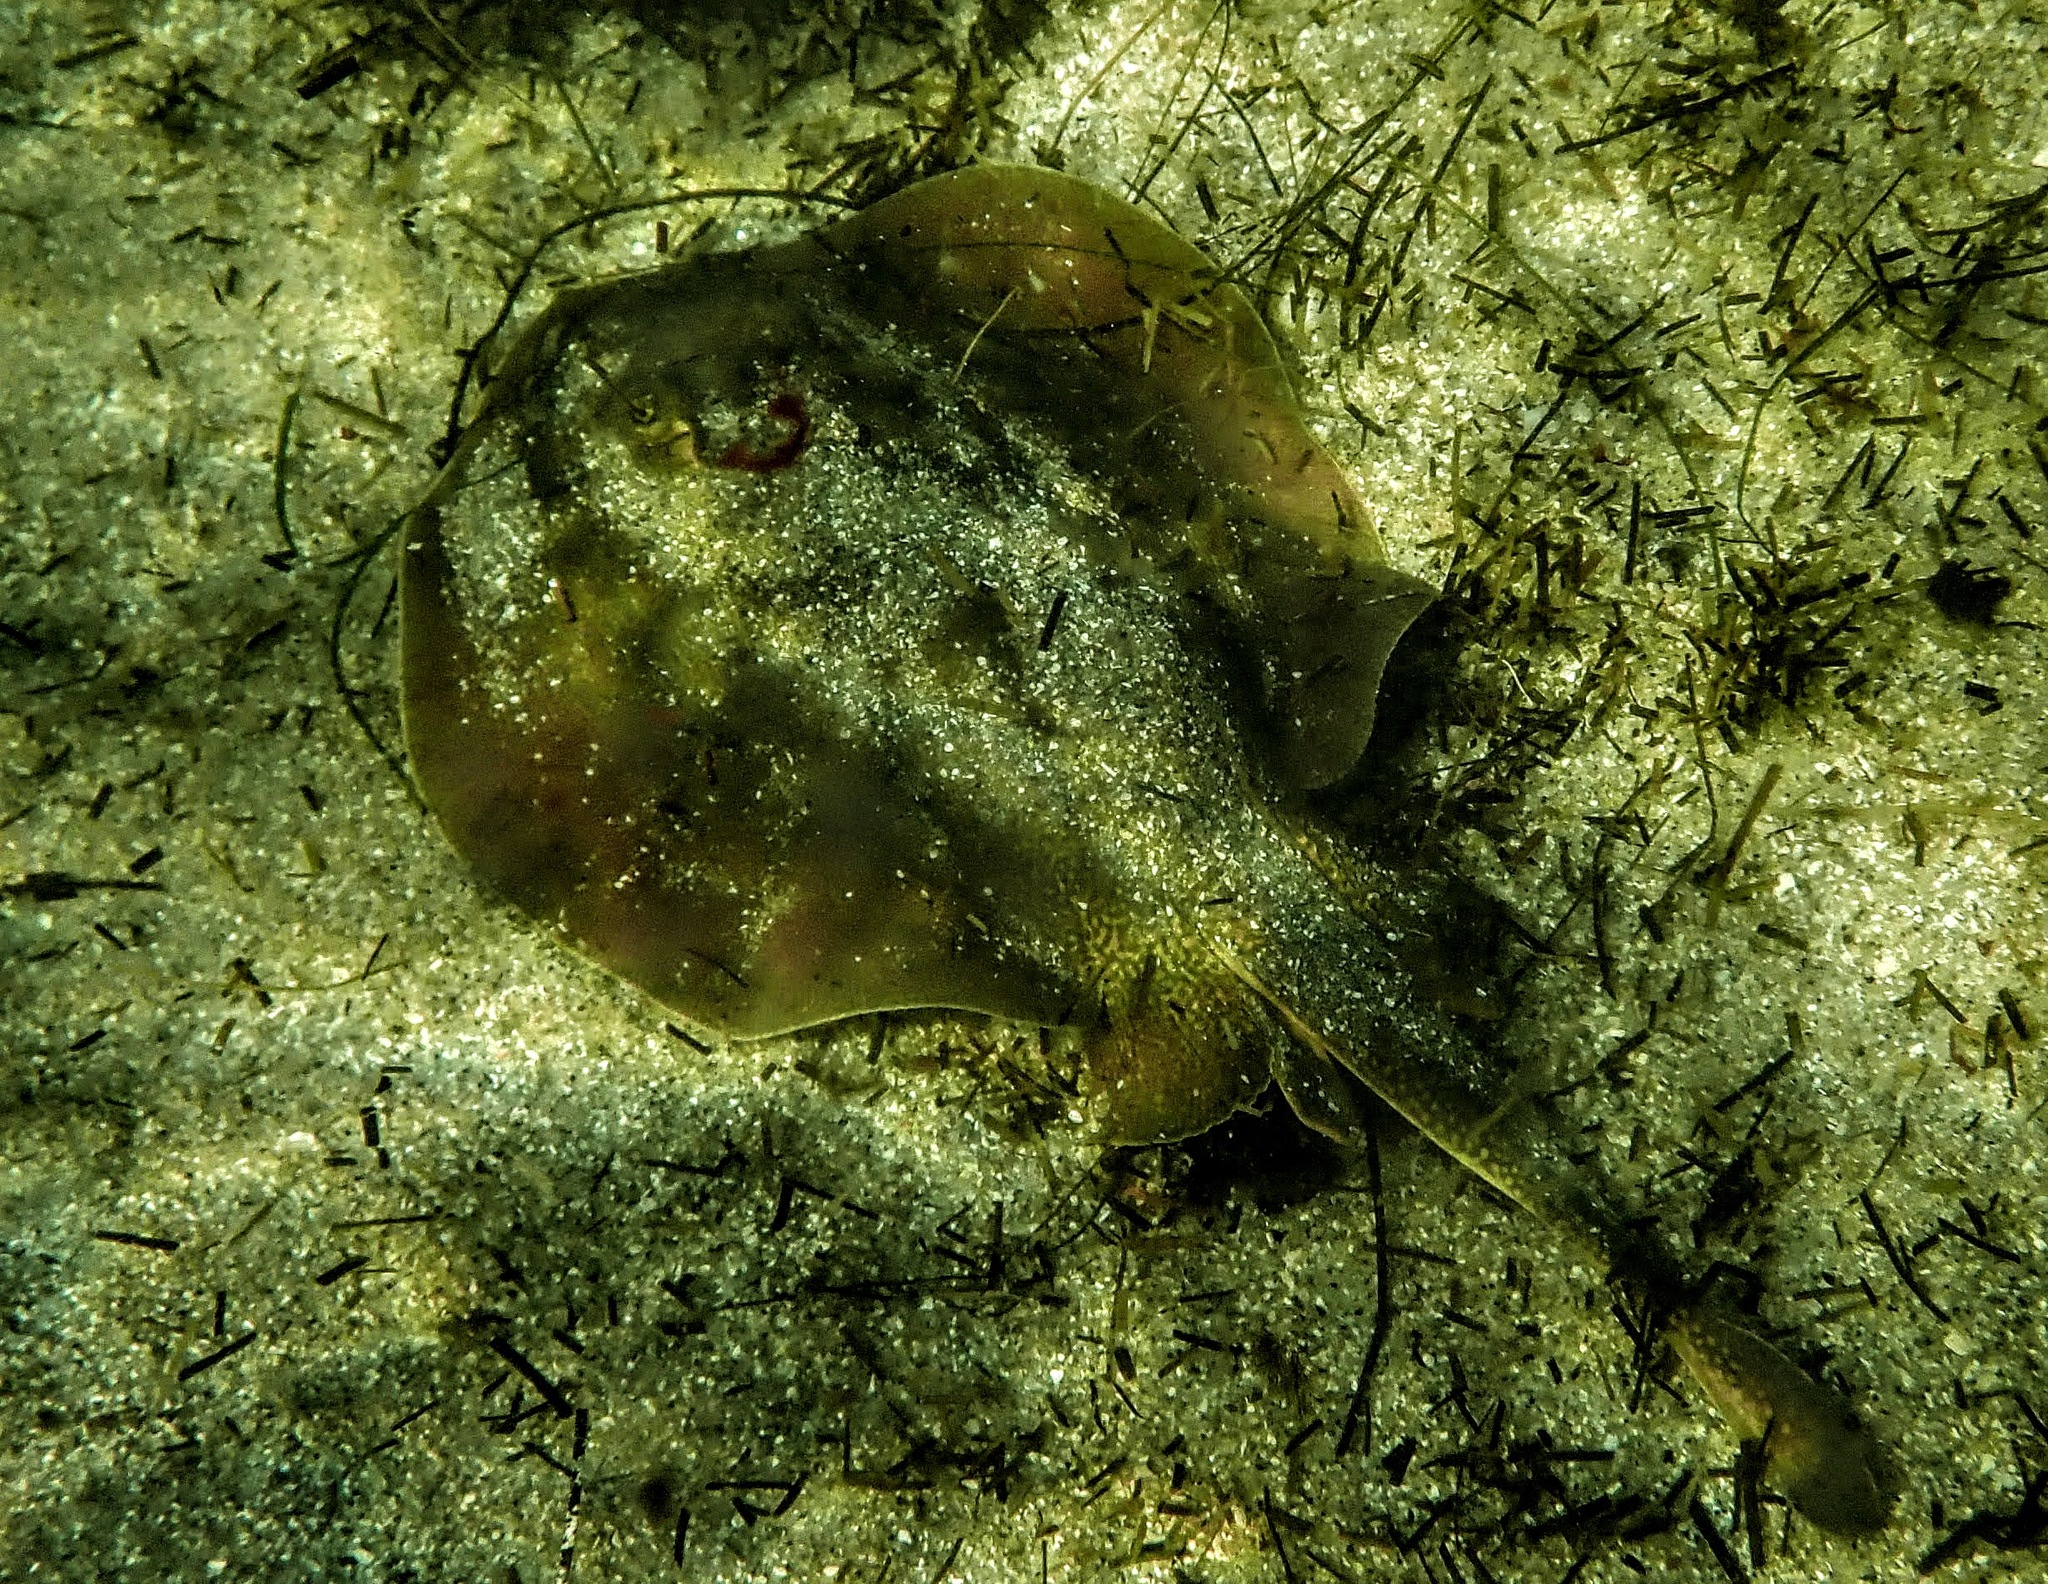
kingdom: Animalia
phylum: Chordata
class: Elasmobranchii
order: Myliobatiformes
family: Urolophidae
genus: Urolophus
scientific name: Urolophus halleri
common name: Round stingray
